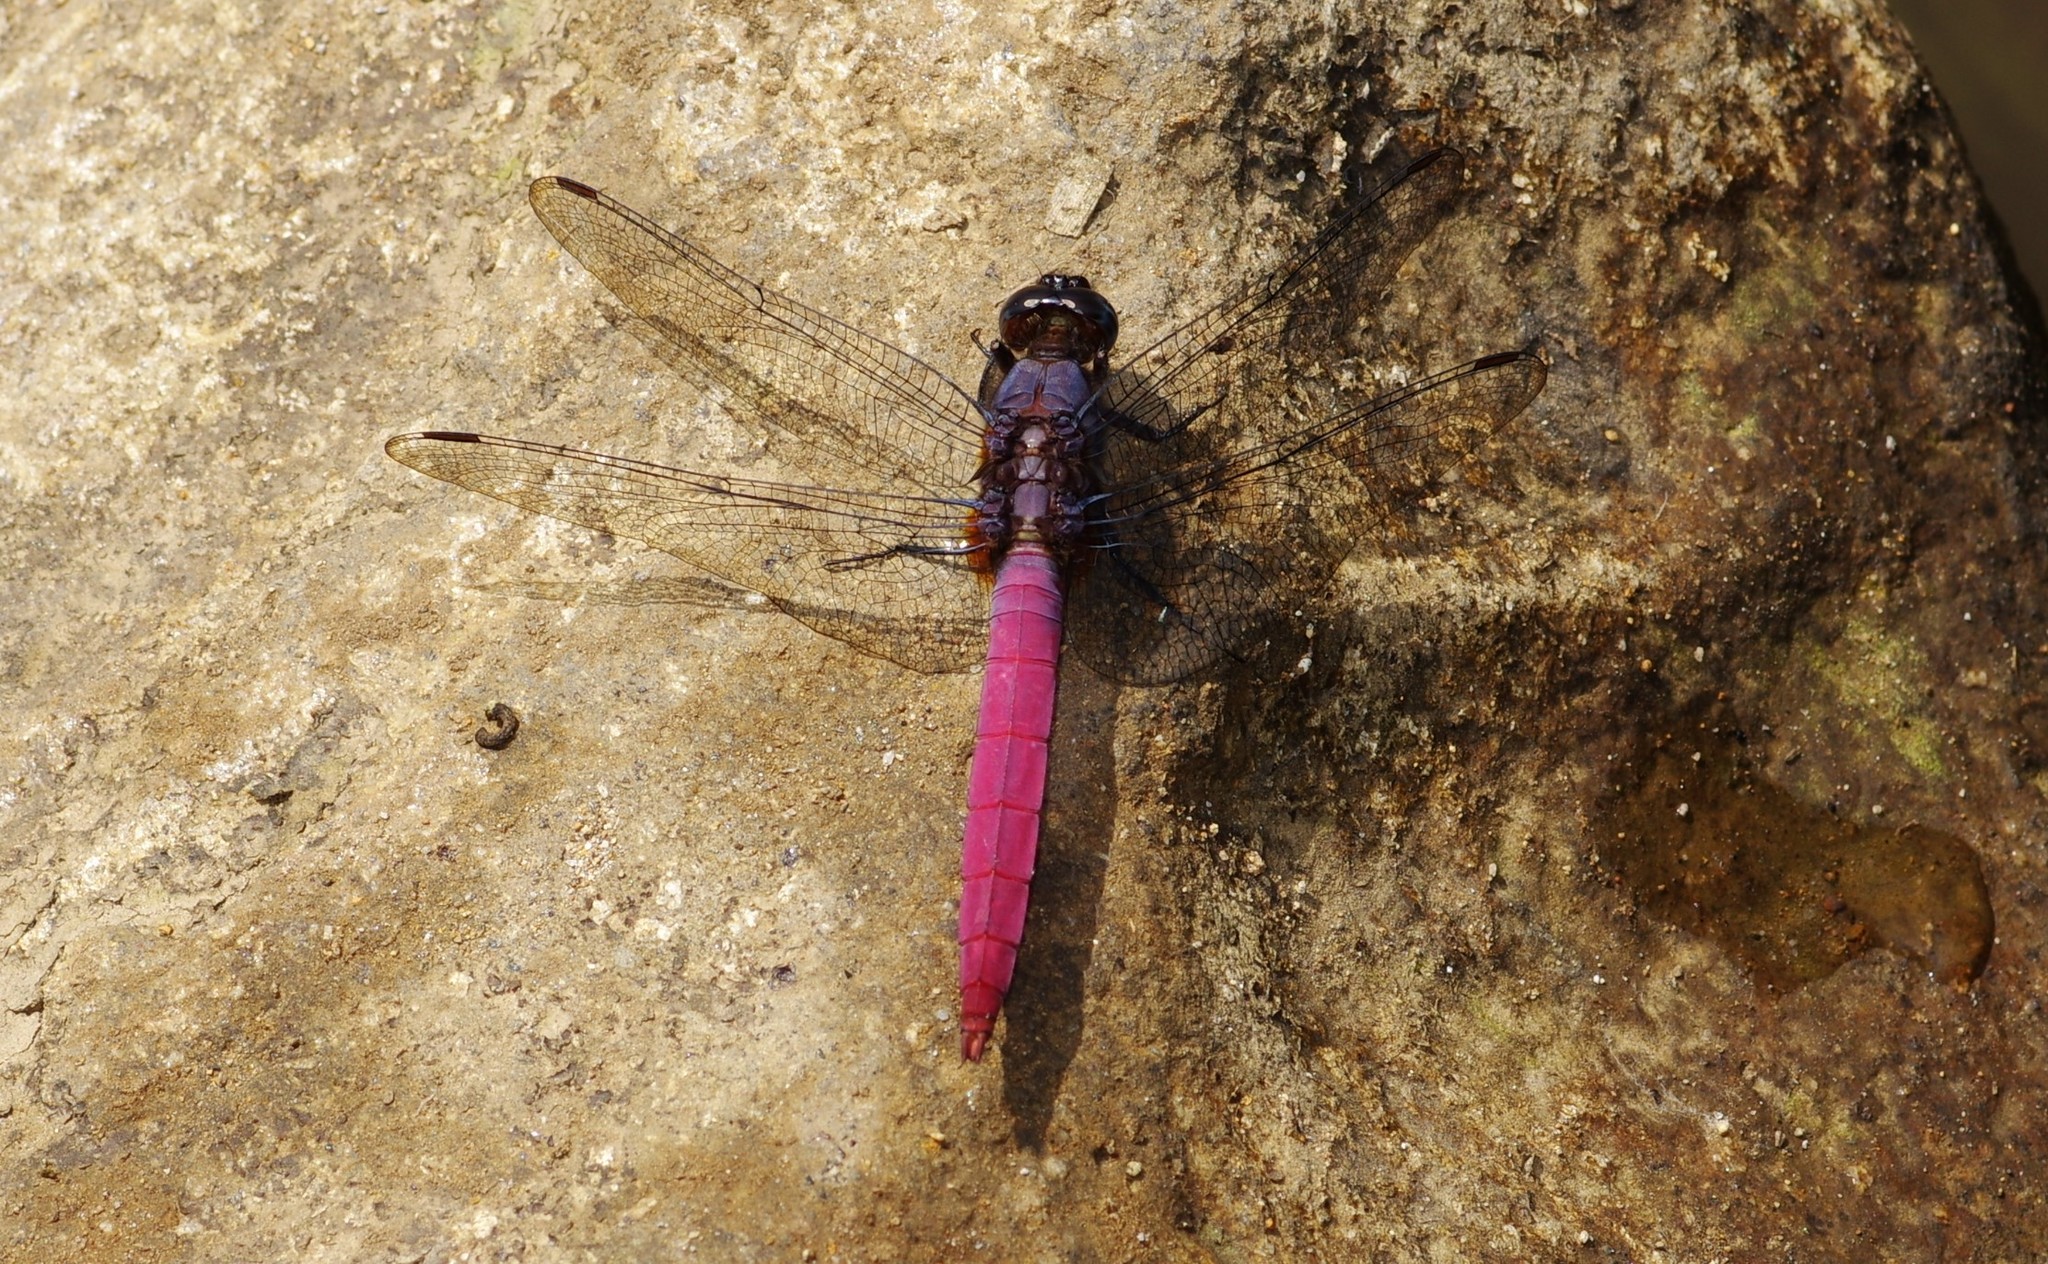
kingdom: Animalia
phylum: Arthropoda
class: Insecta
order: Odonata
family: Libellulidae
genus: Orthetrum
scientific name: Orthetrum pruinosum
